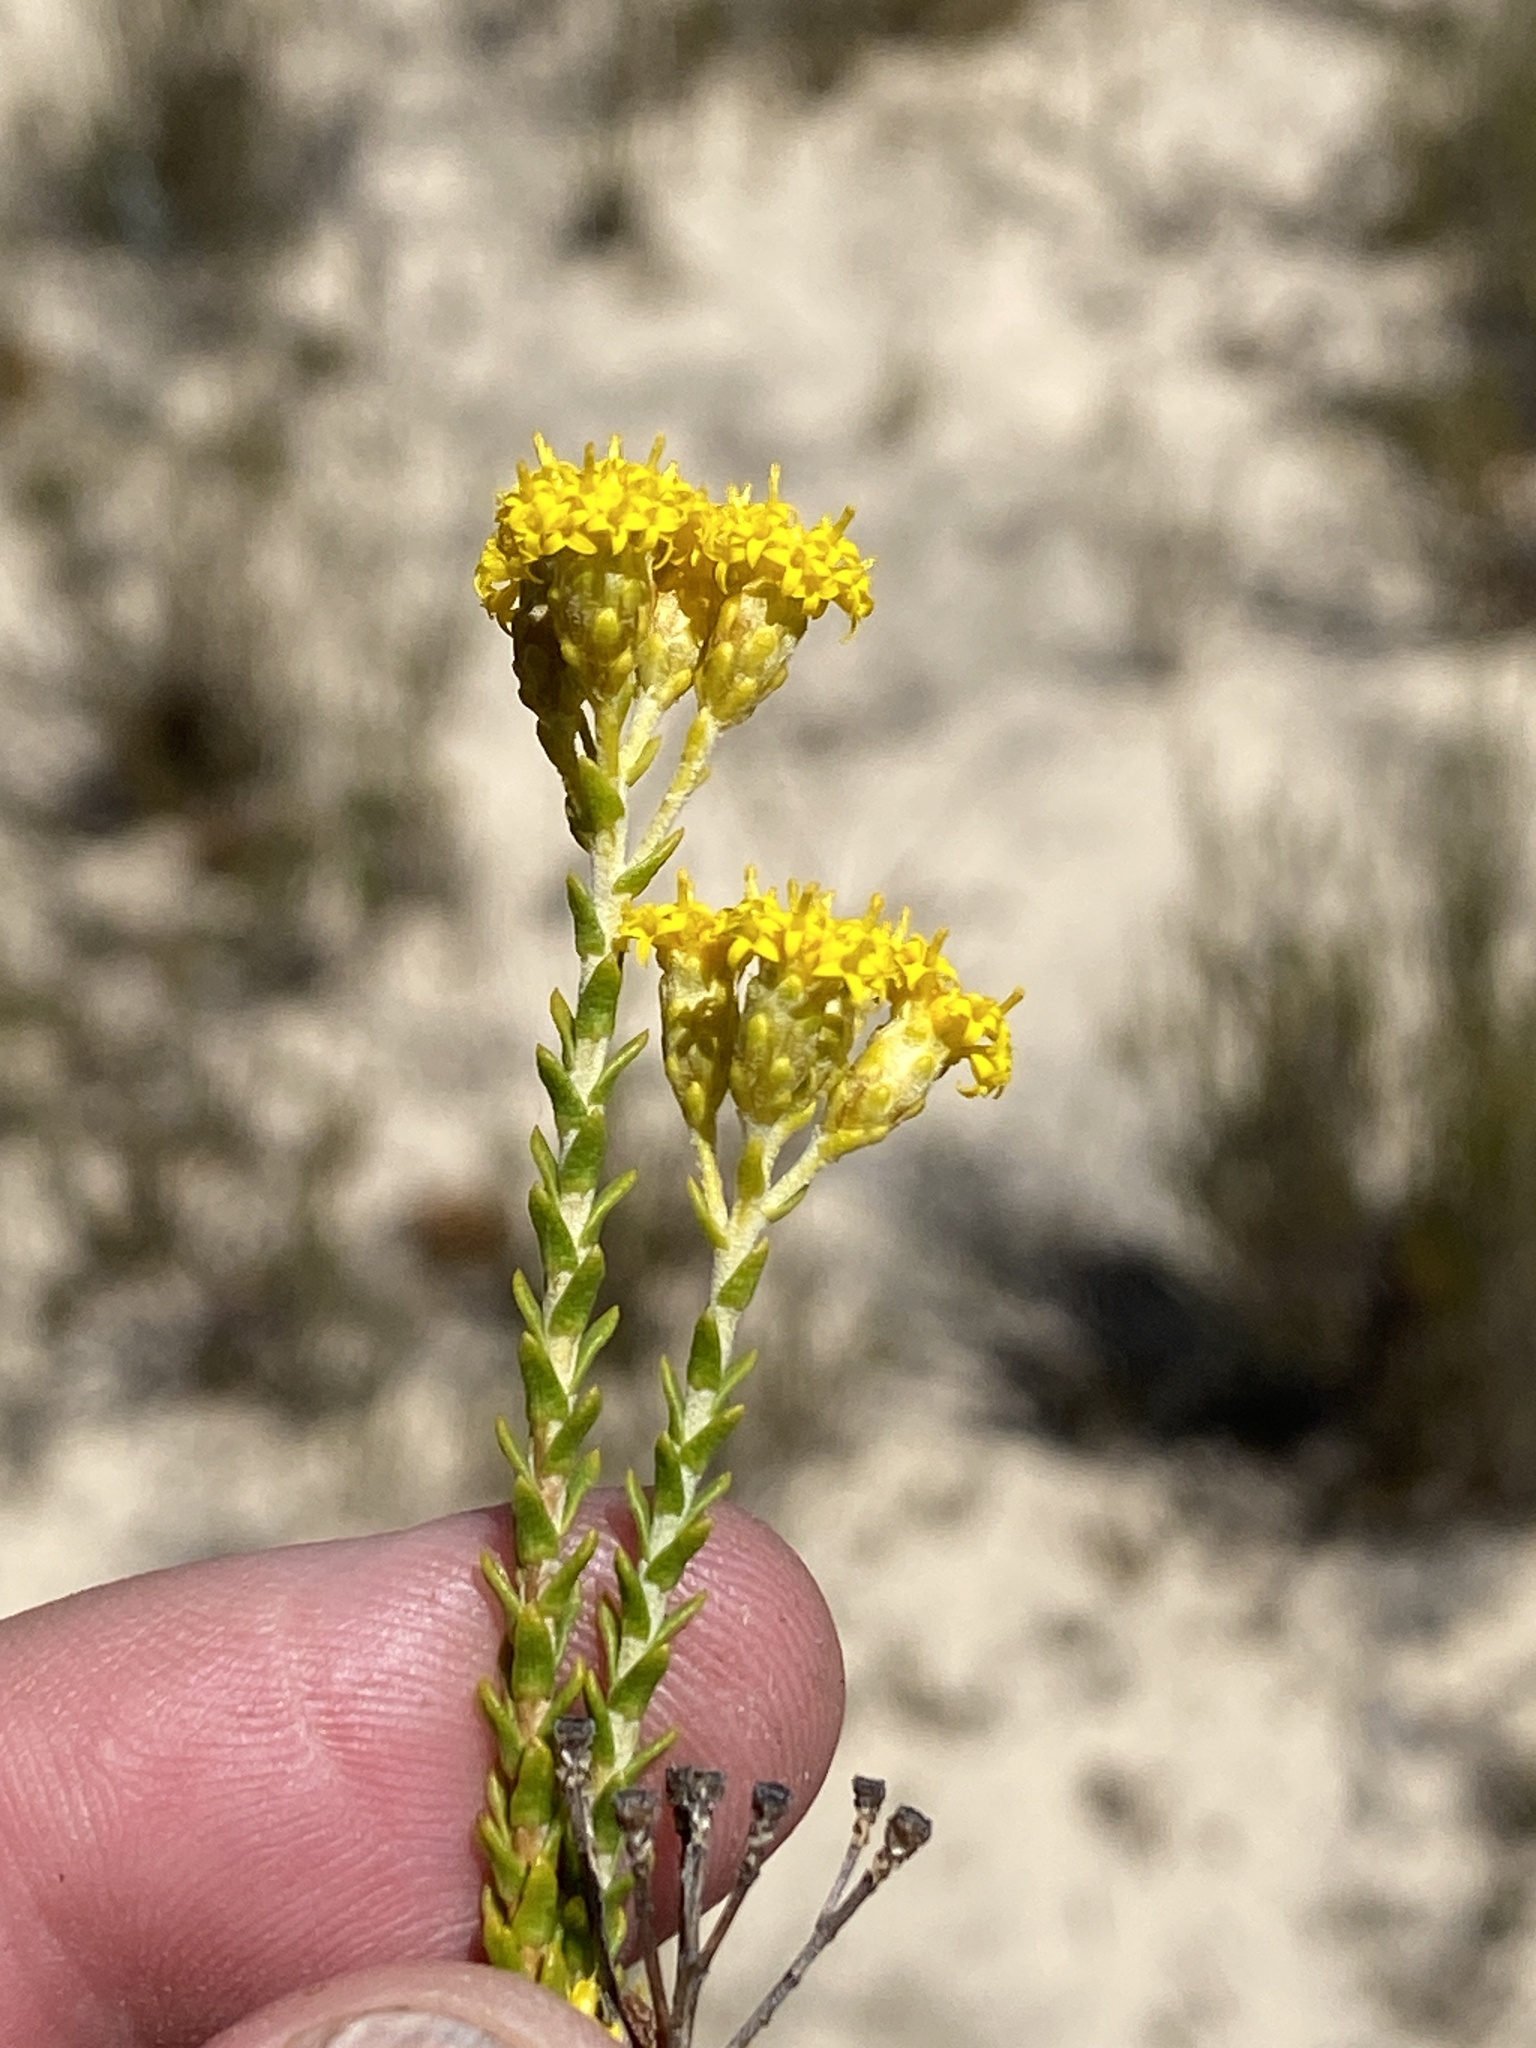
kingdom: Plantae
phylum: Tracheophyta
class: Magnoliopsida
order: Asterales
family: Asteraceae
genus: Athanasia
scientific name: Athanasia microphylla
